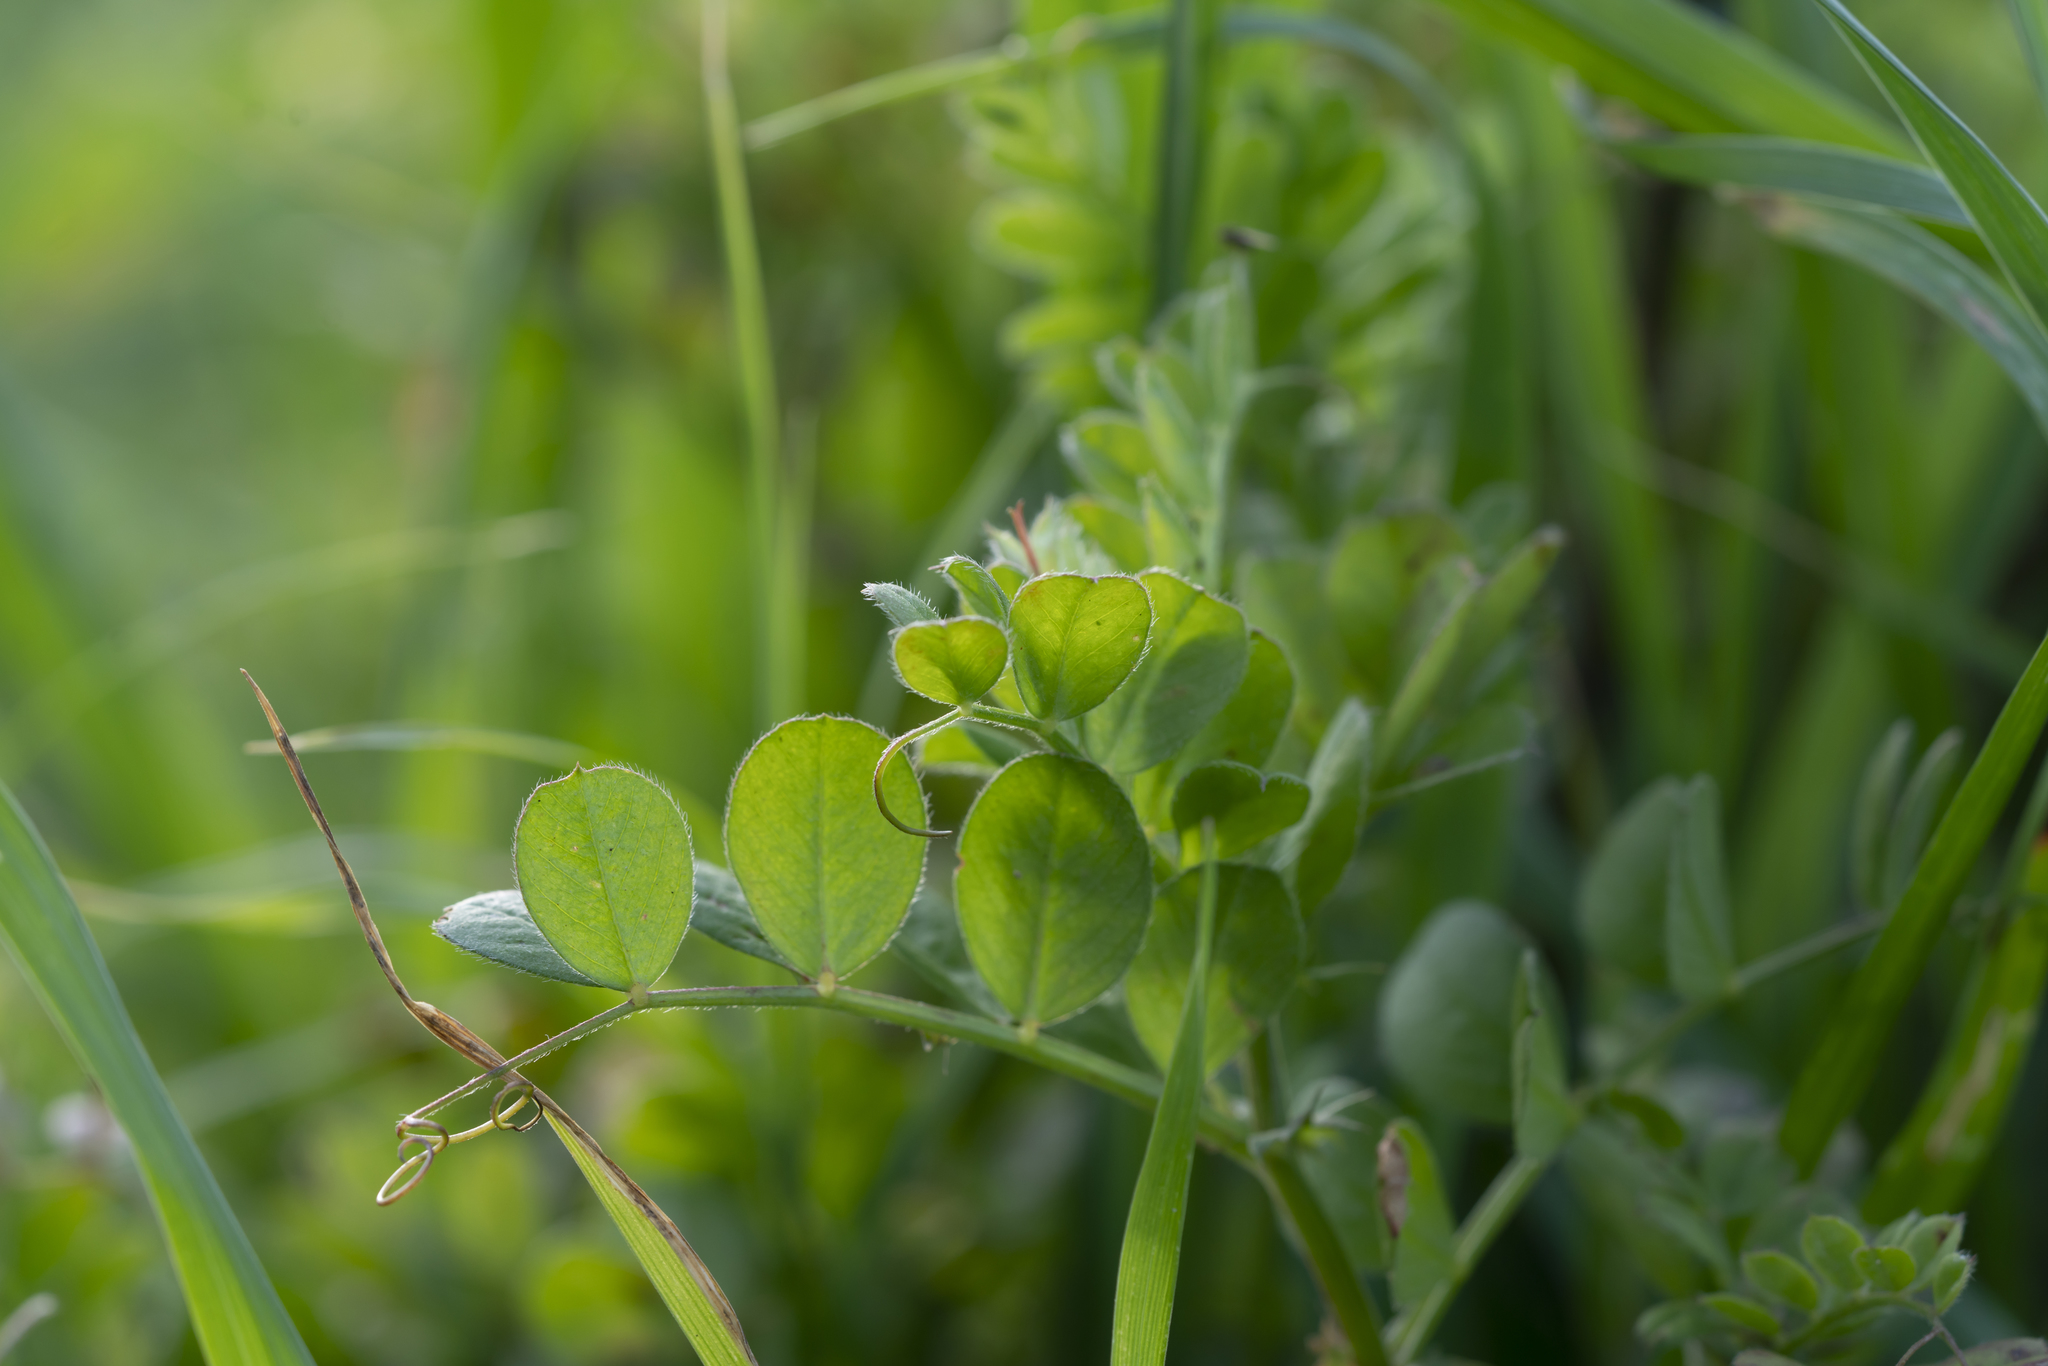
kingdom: Plantae
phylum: Tracheophyta
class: Magnoliopsida
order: Fabales
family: Fabaceae
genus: Vicia
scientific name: Vicia sativa
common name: Garden vetch
